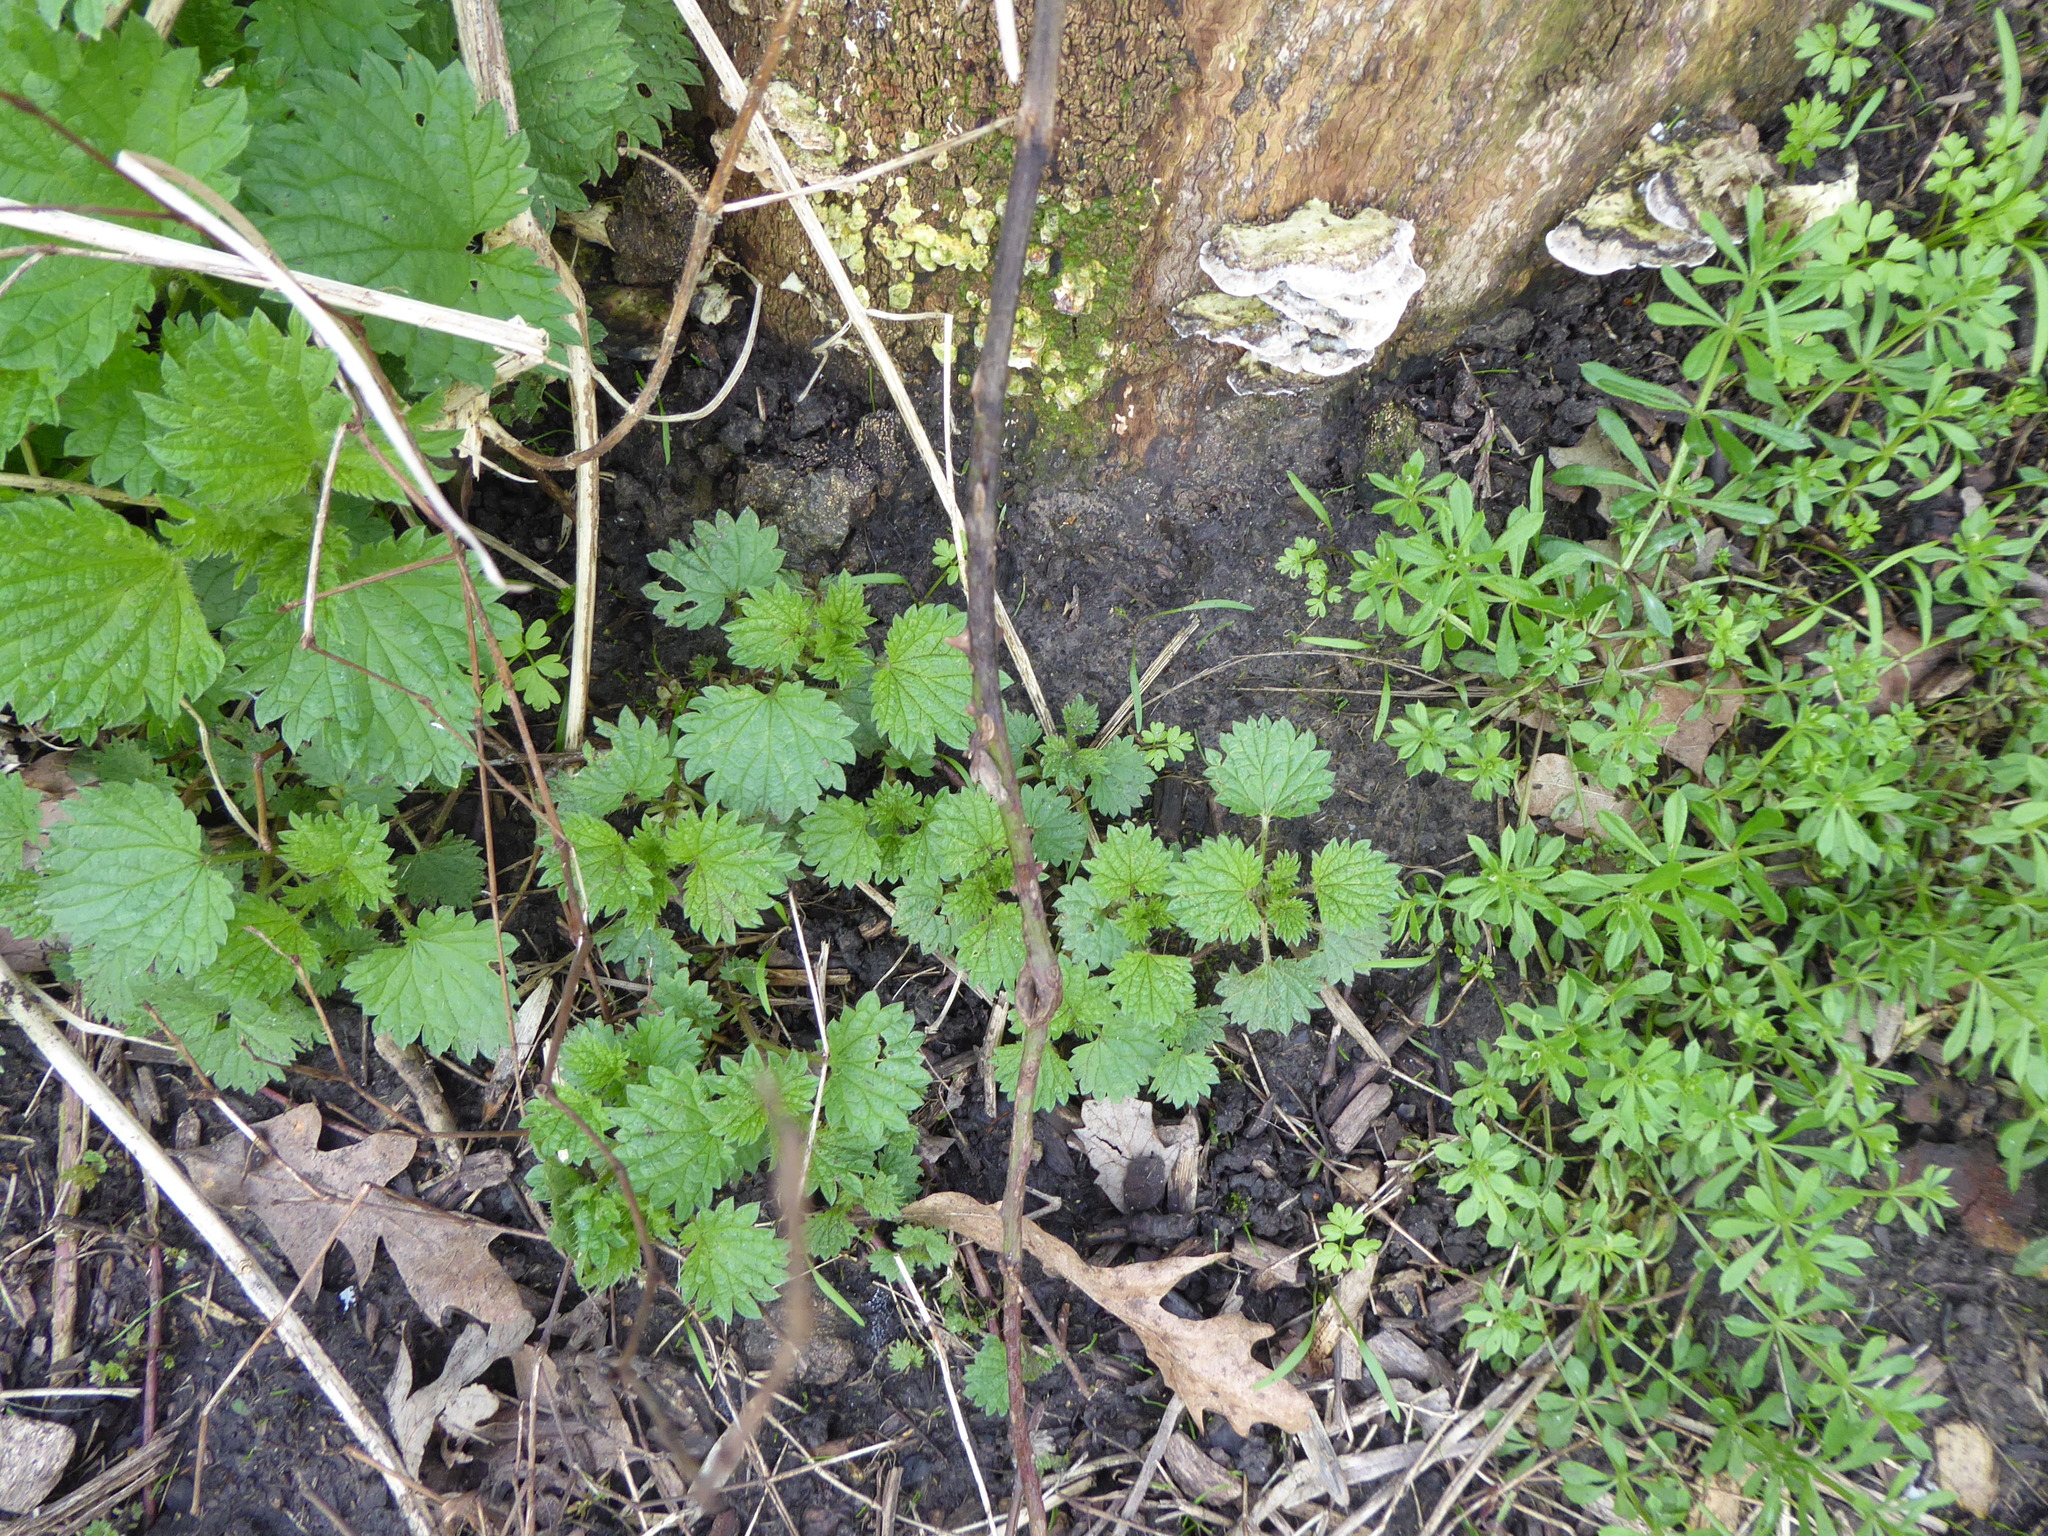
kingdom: Plantae
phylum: Tracheophyta
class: Magnoliopsida
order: Rosales
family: Urticaceae
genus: Urtica
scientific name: Urtica dioica
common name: Common nettle
